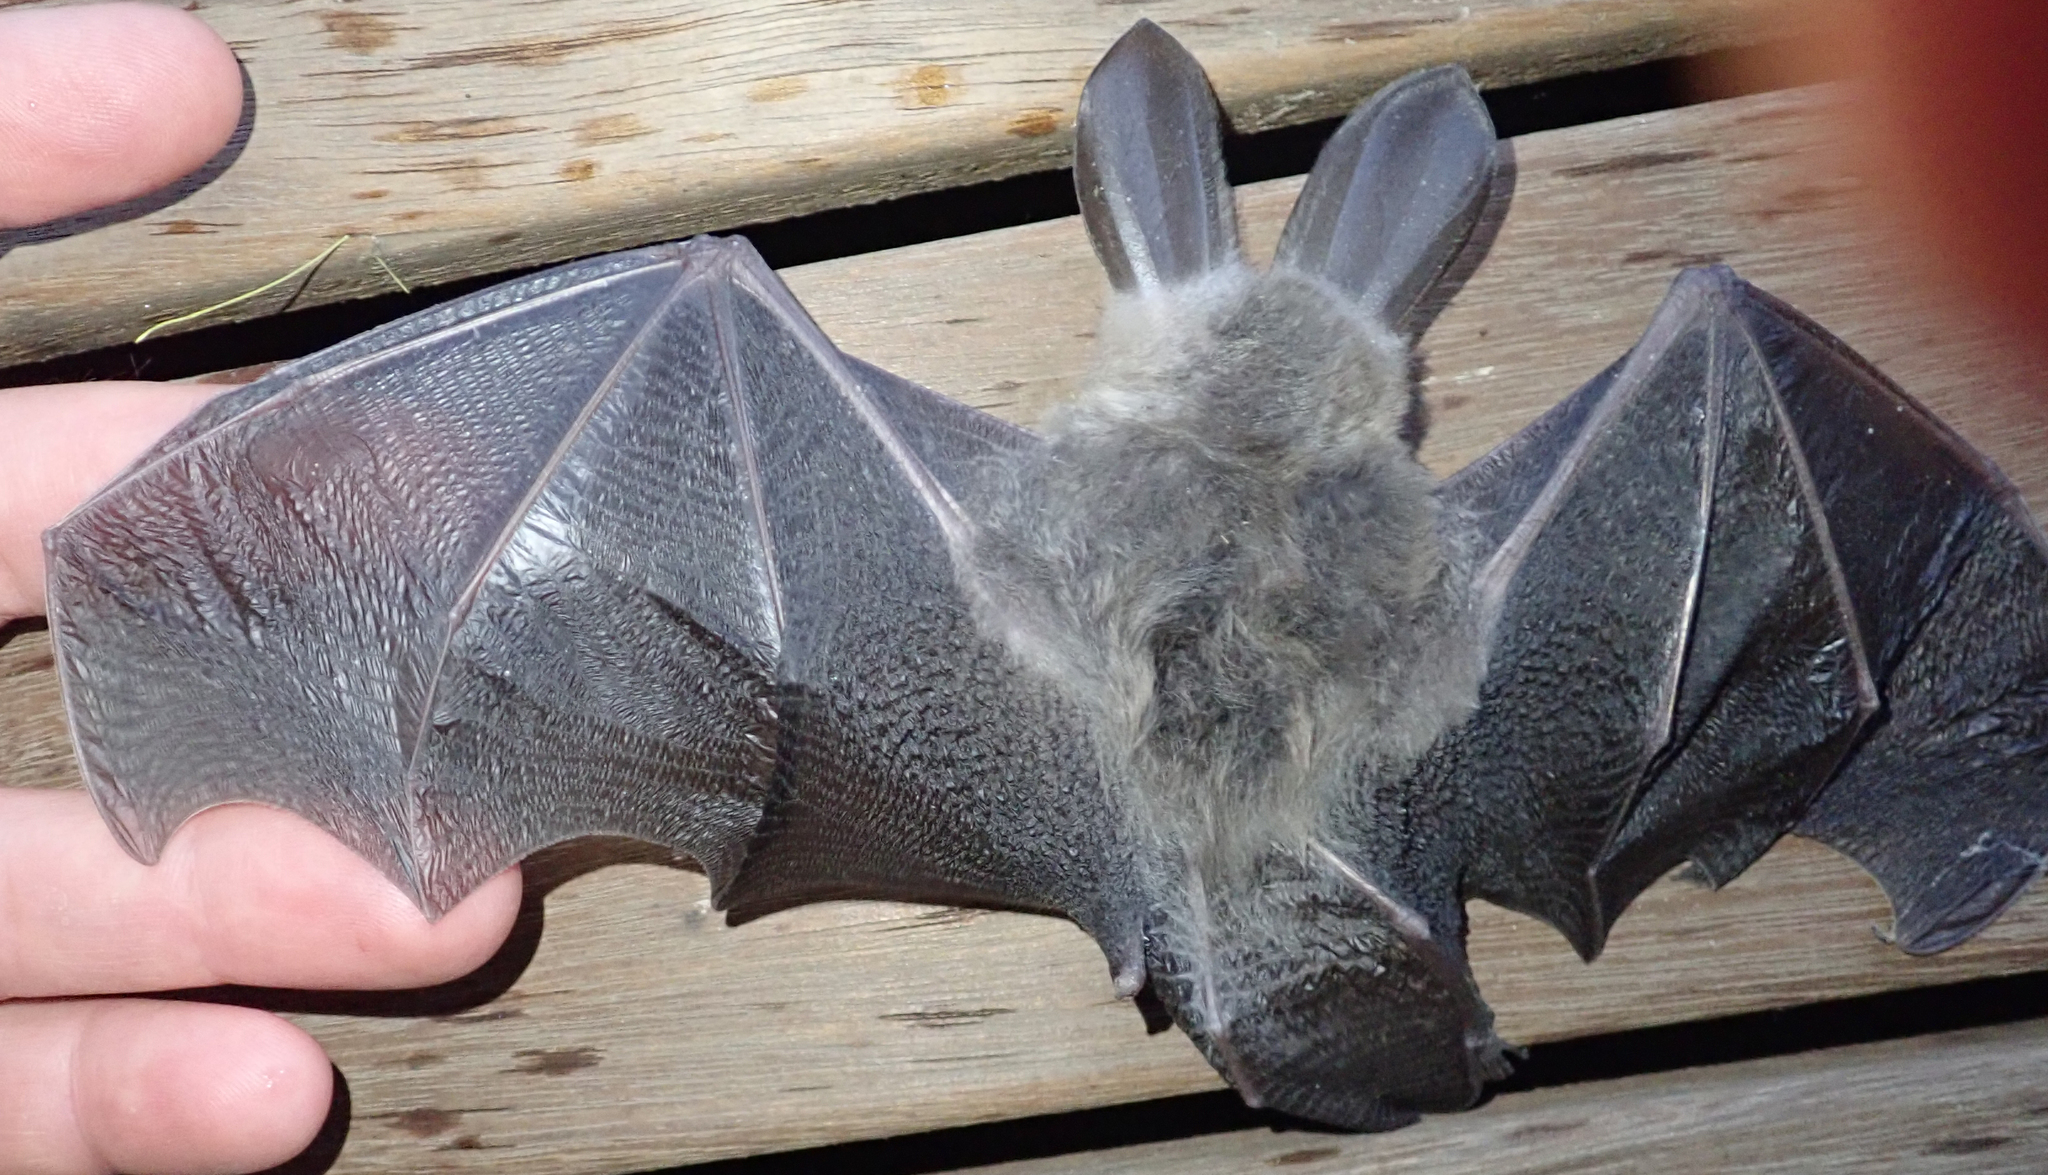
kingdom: Animalia
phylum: Chordata
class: Mammalia
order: Chiroptera
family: Nycteridae
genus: Nycteris
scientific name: Nycteris thebaica
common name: Egyptian slit-faced bat
